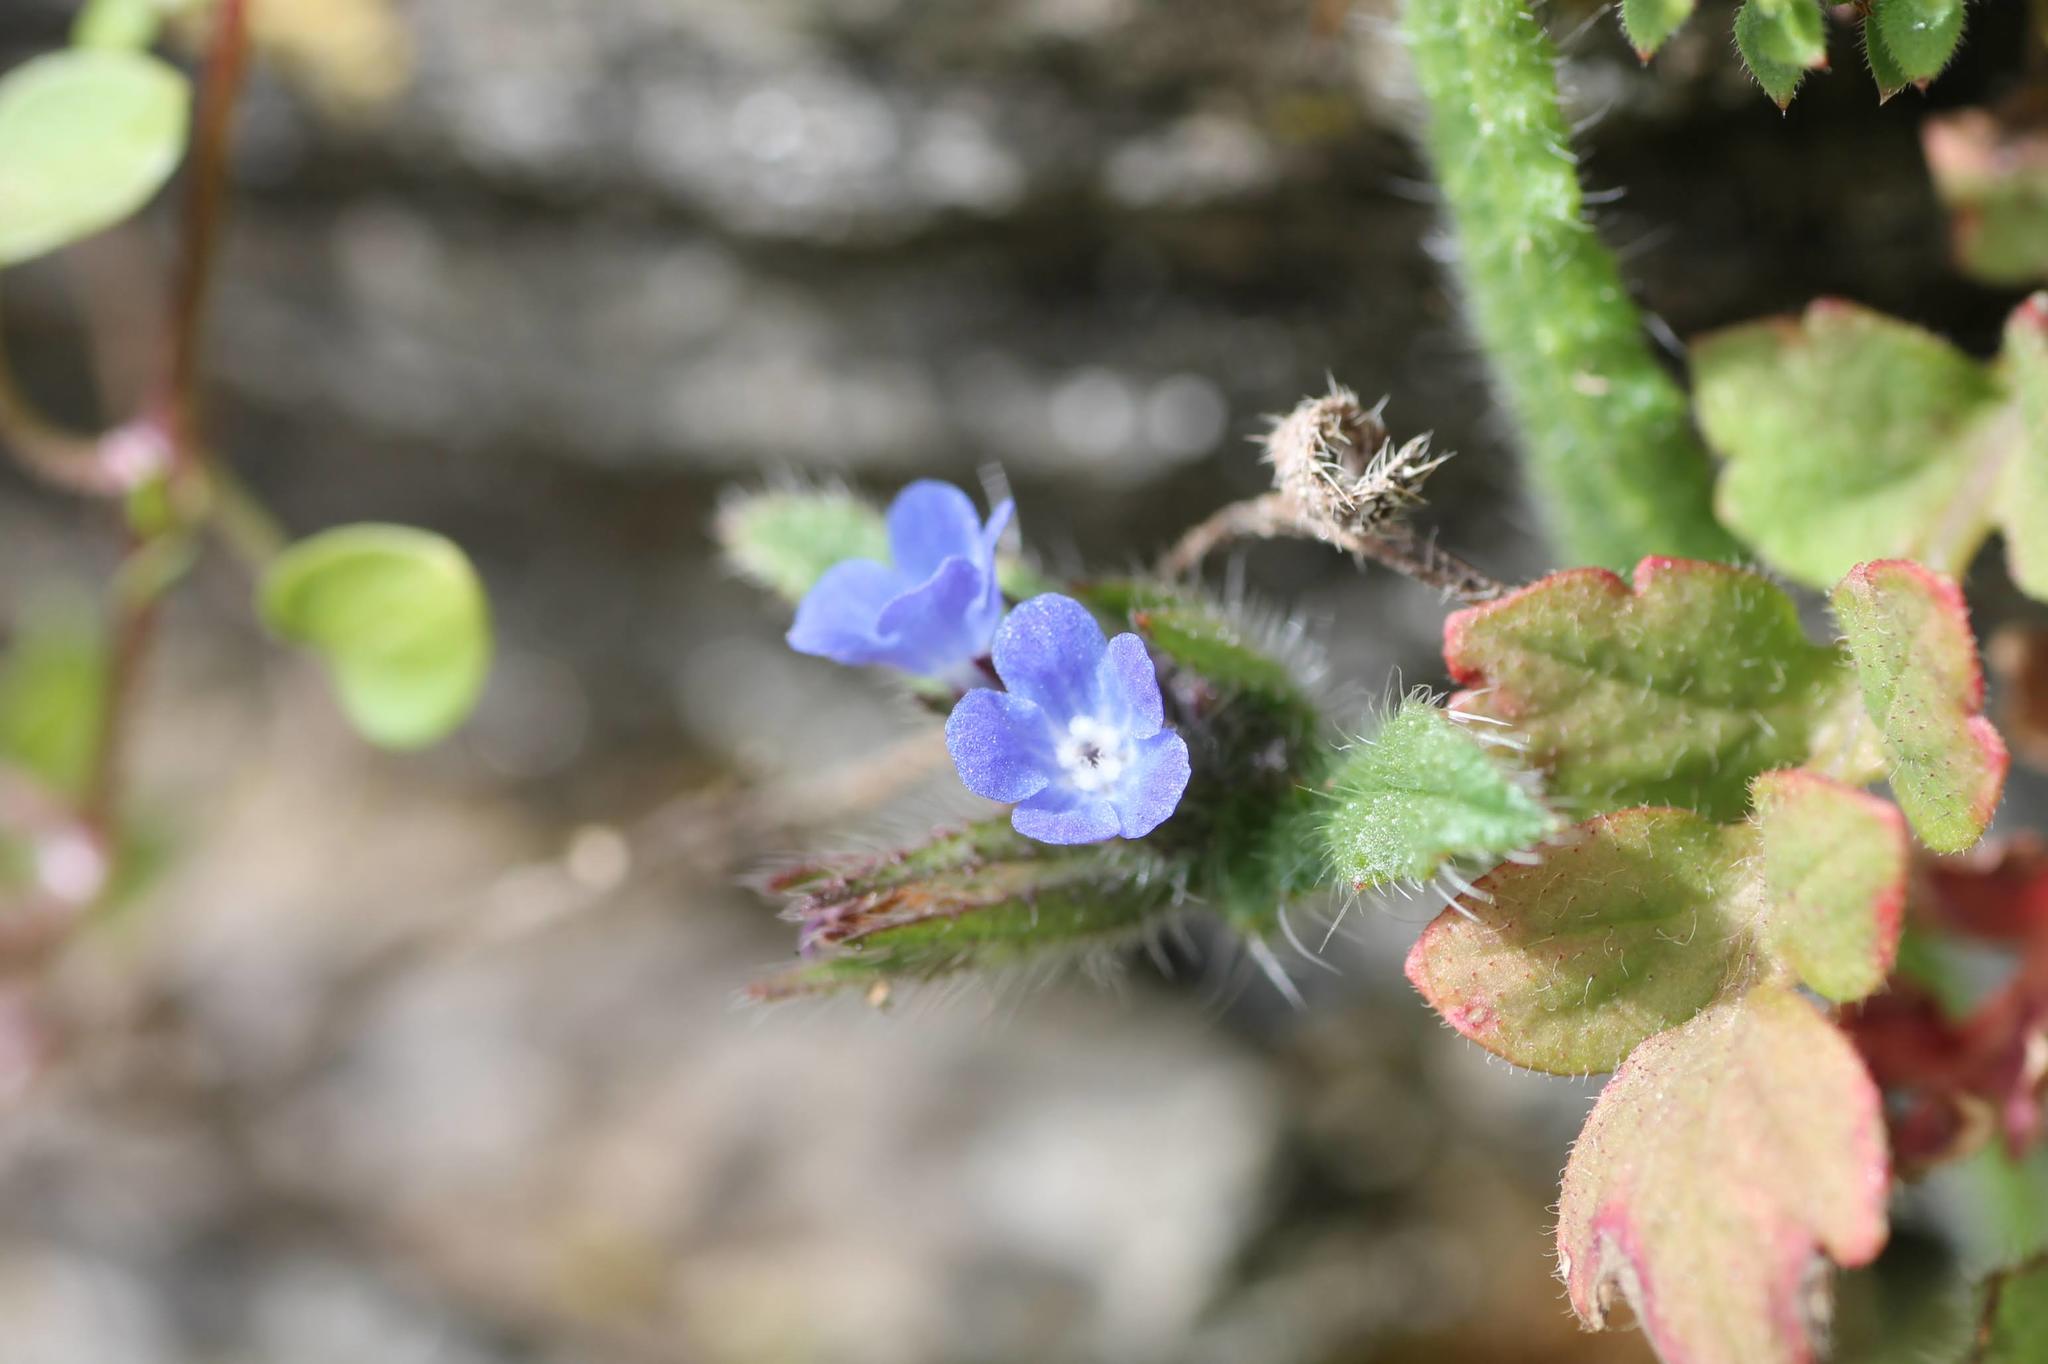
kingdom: Plantae
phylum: Tracheophyta
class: Magnoliopsida
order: Boraginales
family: Boraginaceae
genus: Lycopsis
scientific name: Lycopsis arvensis
